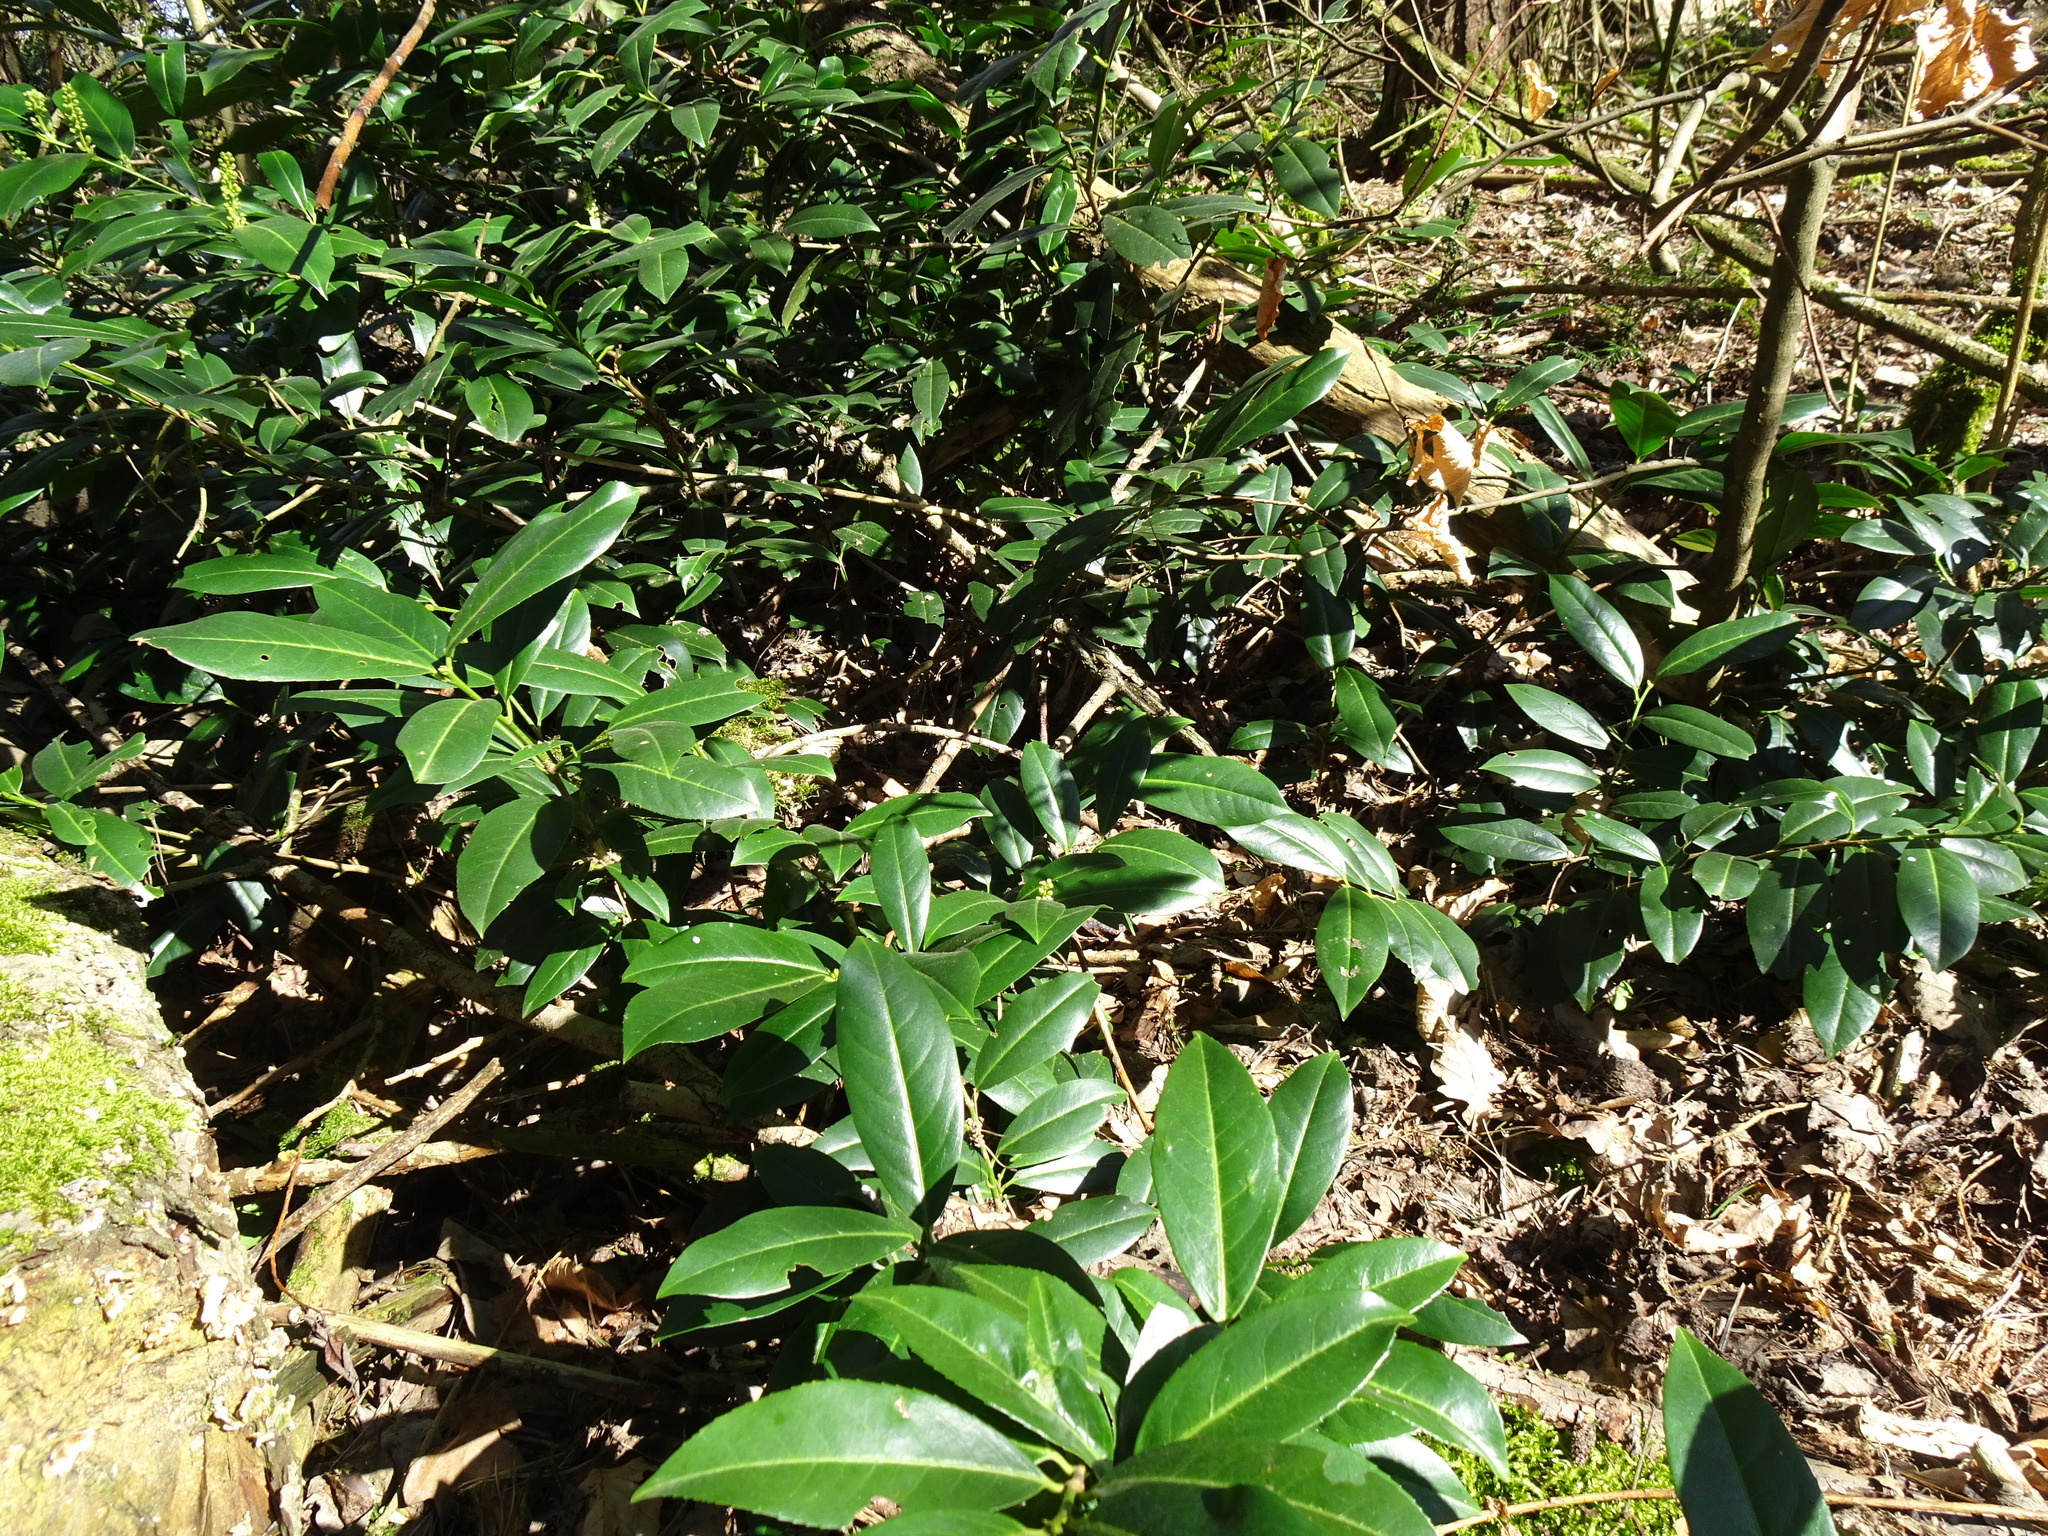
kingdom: Plantae
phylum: Tracheophyta
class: Magnoliopsida
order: Rosales
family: Rosaceae
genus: Prunus
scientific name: Prunus laurocerasus
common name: Cherry laurel
